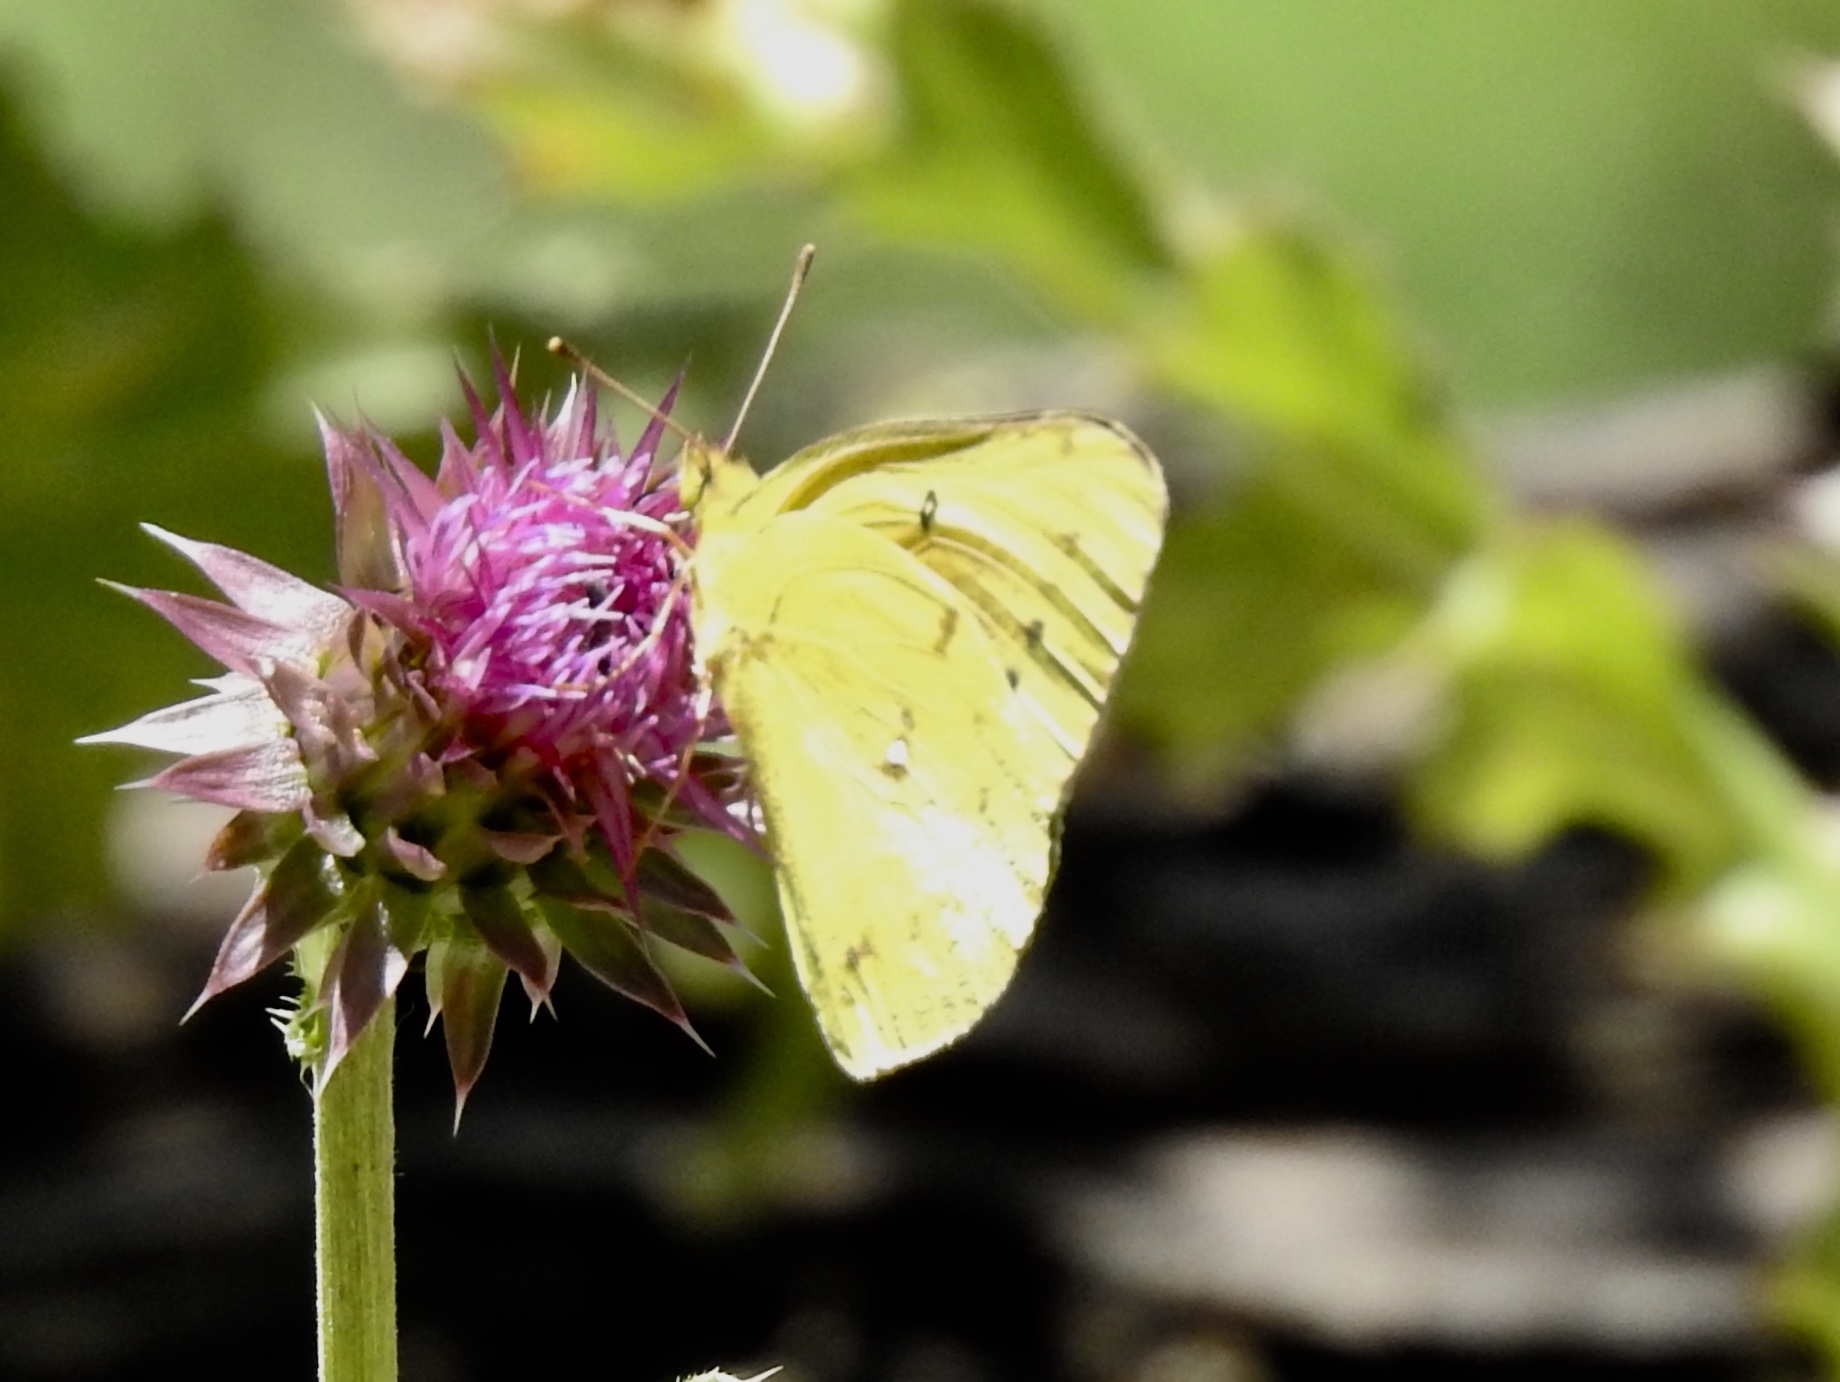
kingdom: Animalia
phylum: Arthropoda
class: Insecta
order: Lepidoptera
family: Pieridae
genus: Colias
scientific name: Colias eurytheme
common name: Alfalfa butterfly
